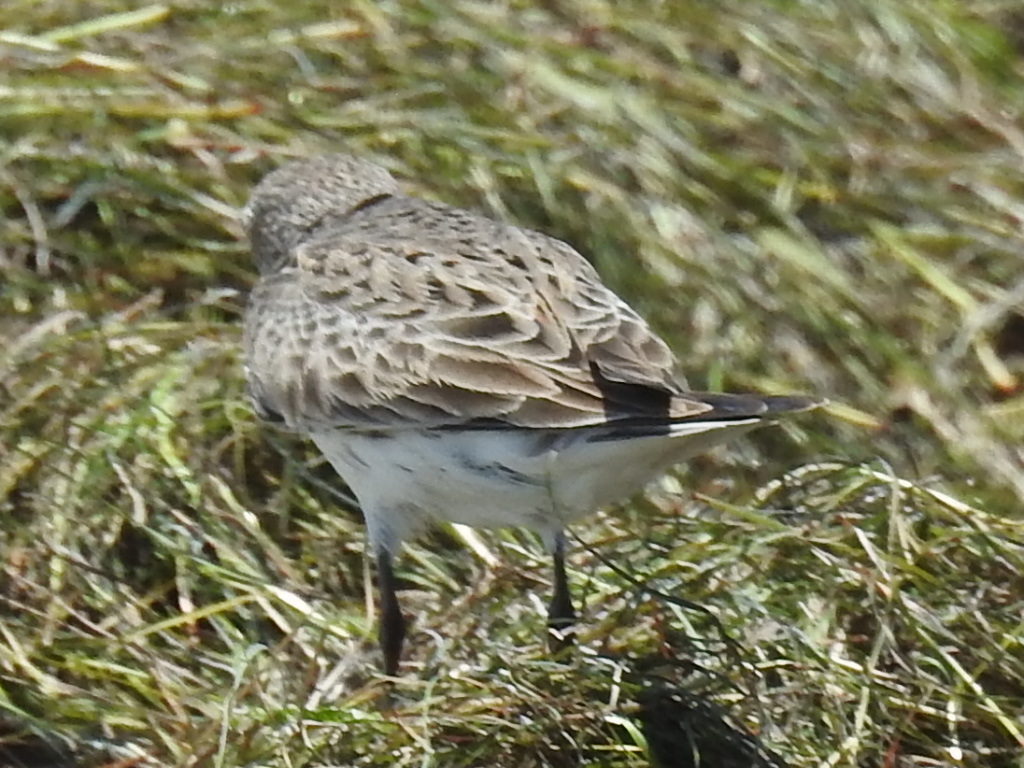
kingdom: Animalia
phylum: Chordata
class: Aves
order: Charadriiformes
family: Scolopacidae
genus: Calidris
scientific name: Calidris fuscicollis
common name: White-rumped sandpiper
